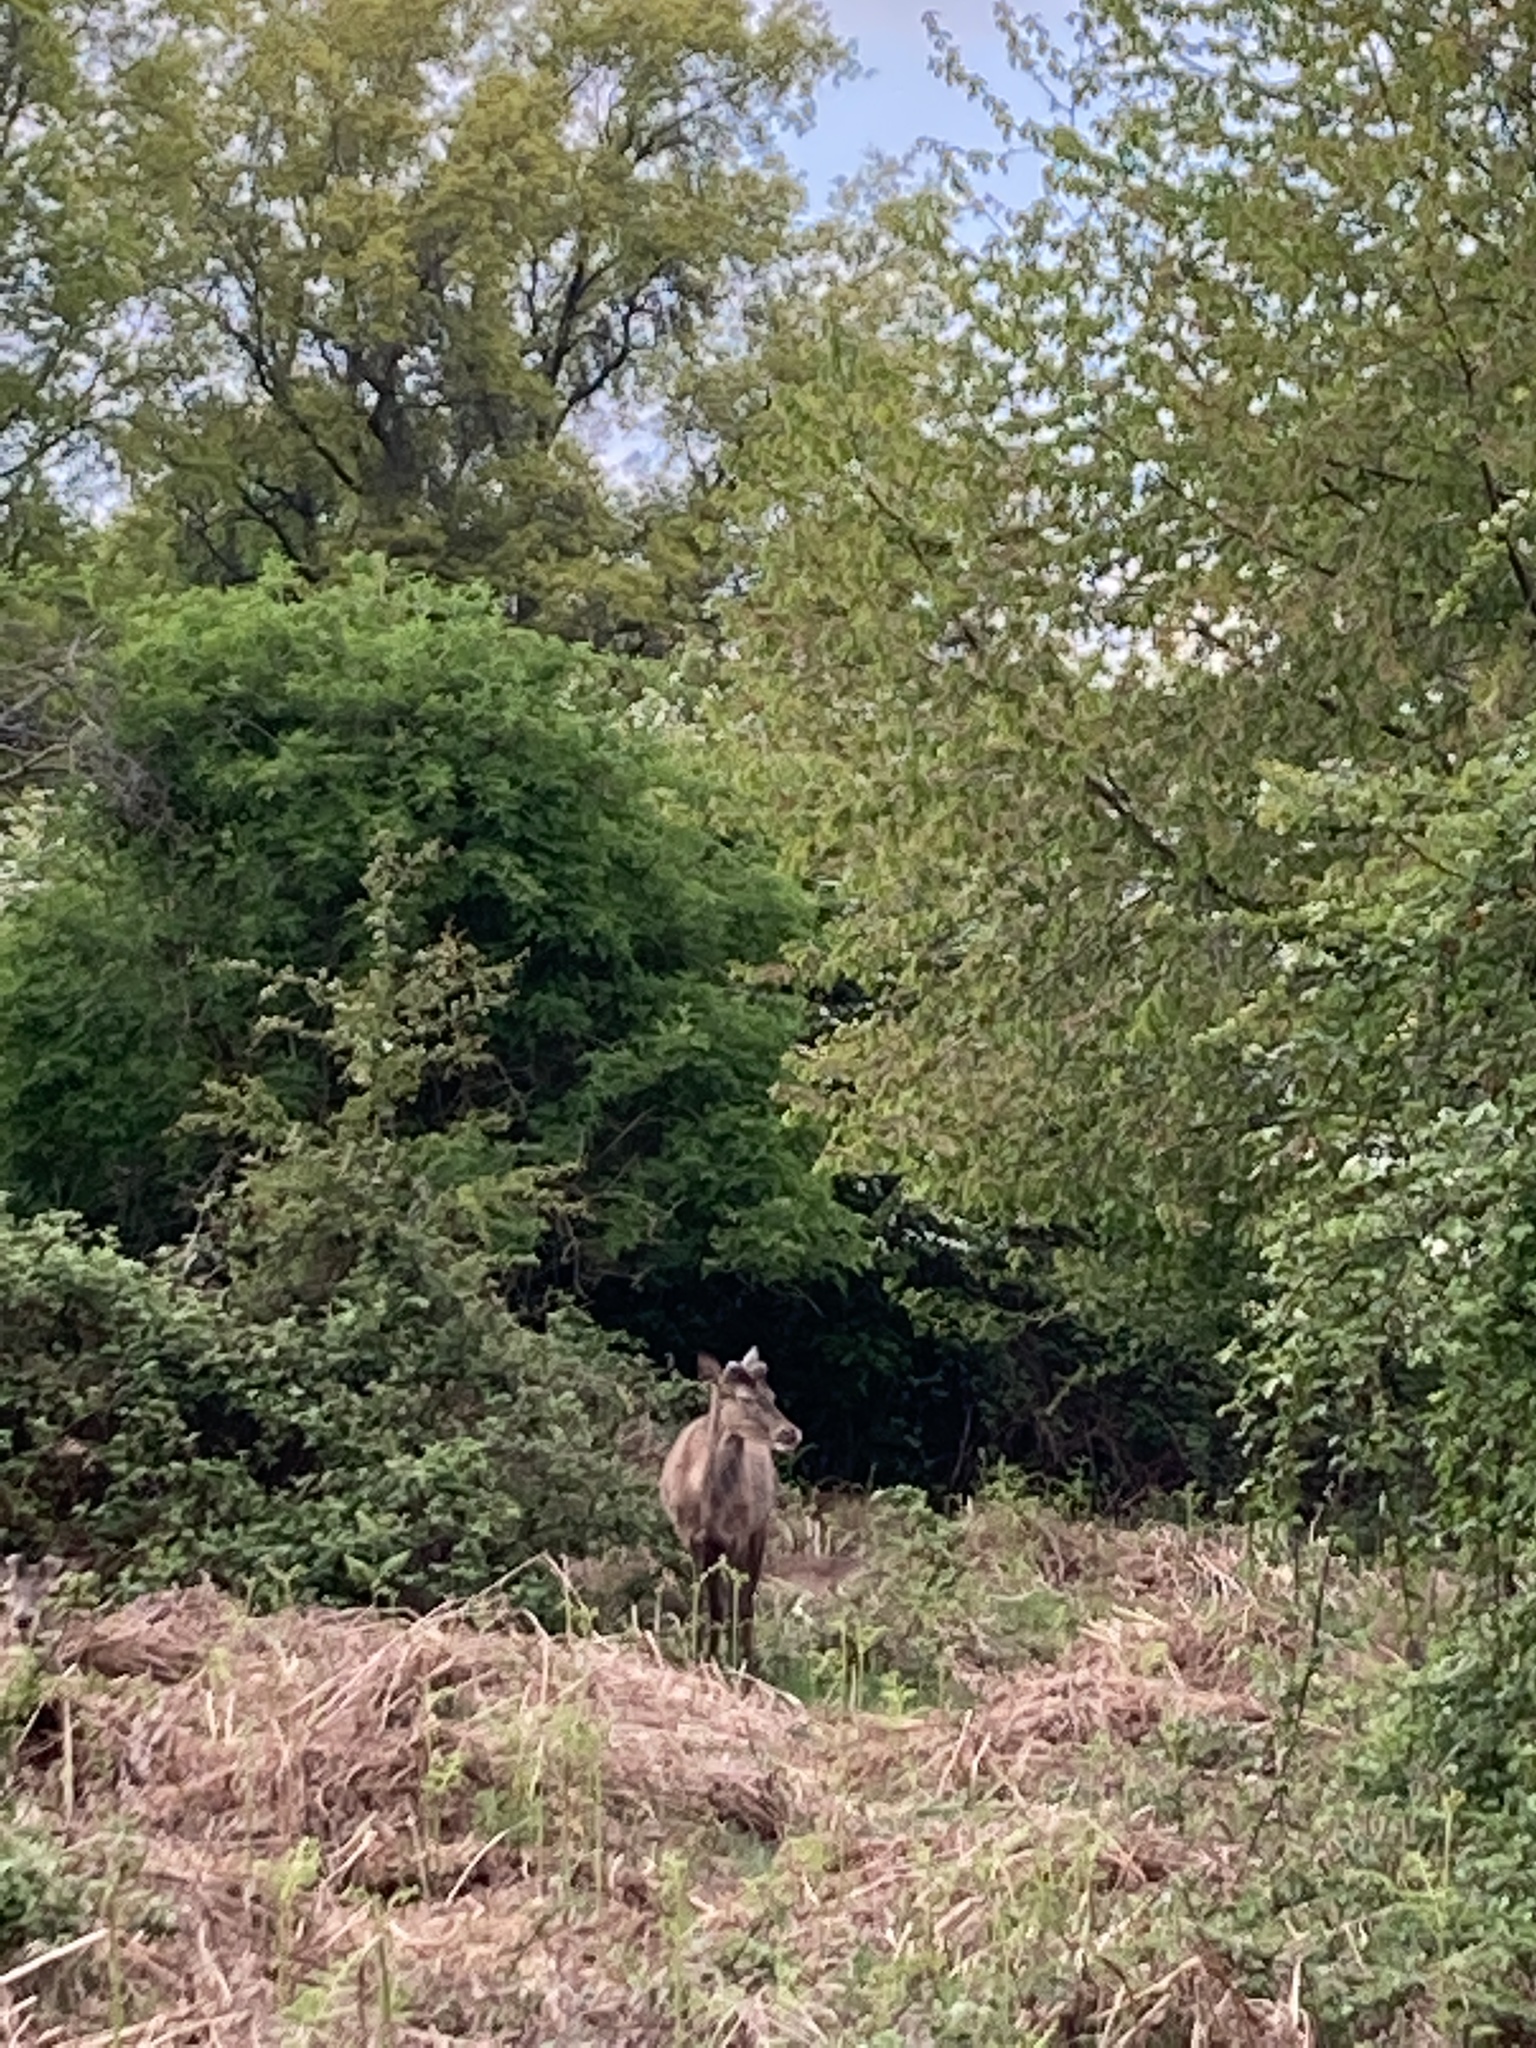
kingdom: Animalia
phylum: Chordata
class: Mammalia
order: Artiodactyla
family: Cervidae
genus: Cervus
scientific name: Cervus elaphus
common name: Red deer
